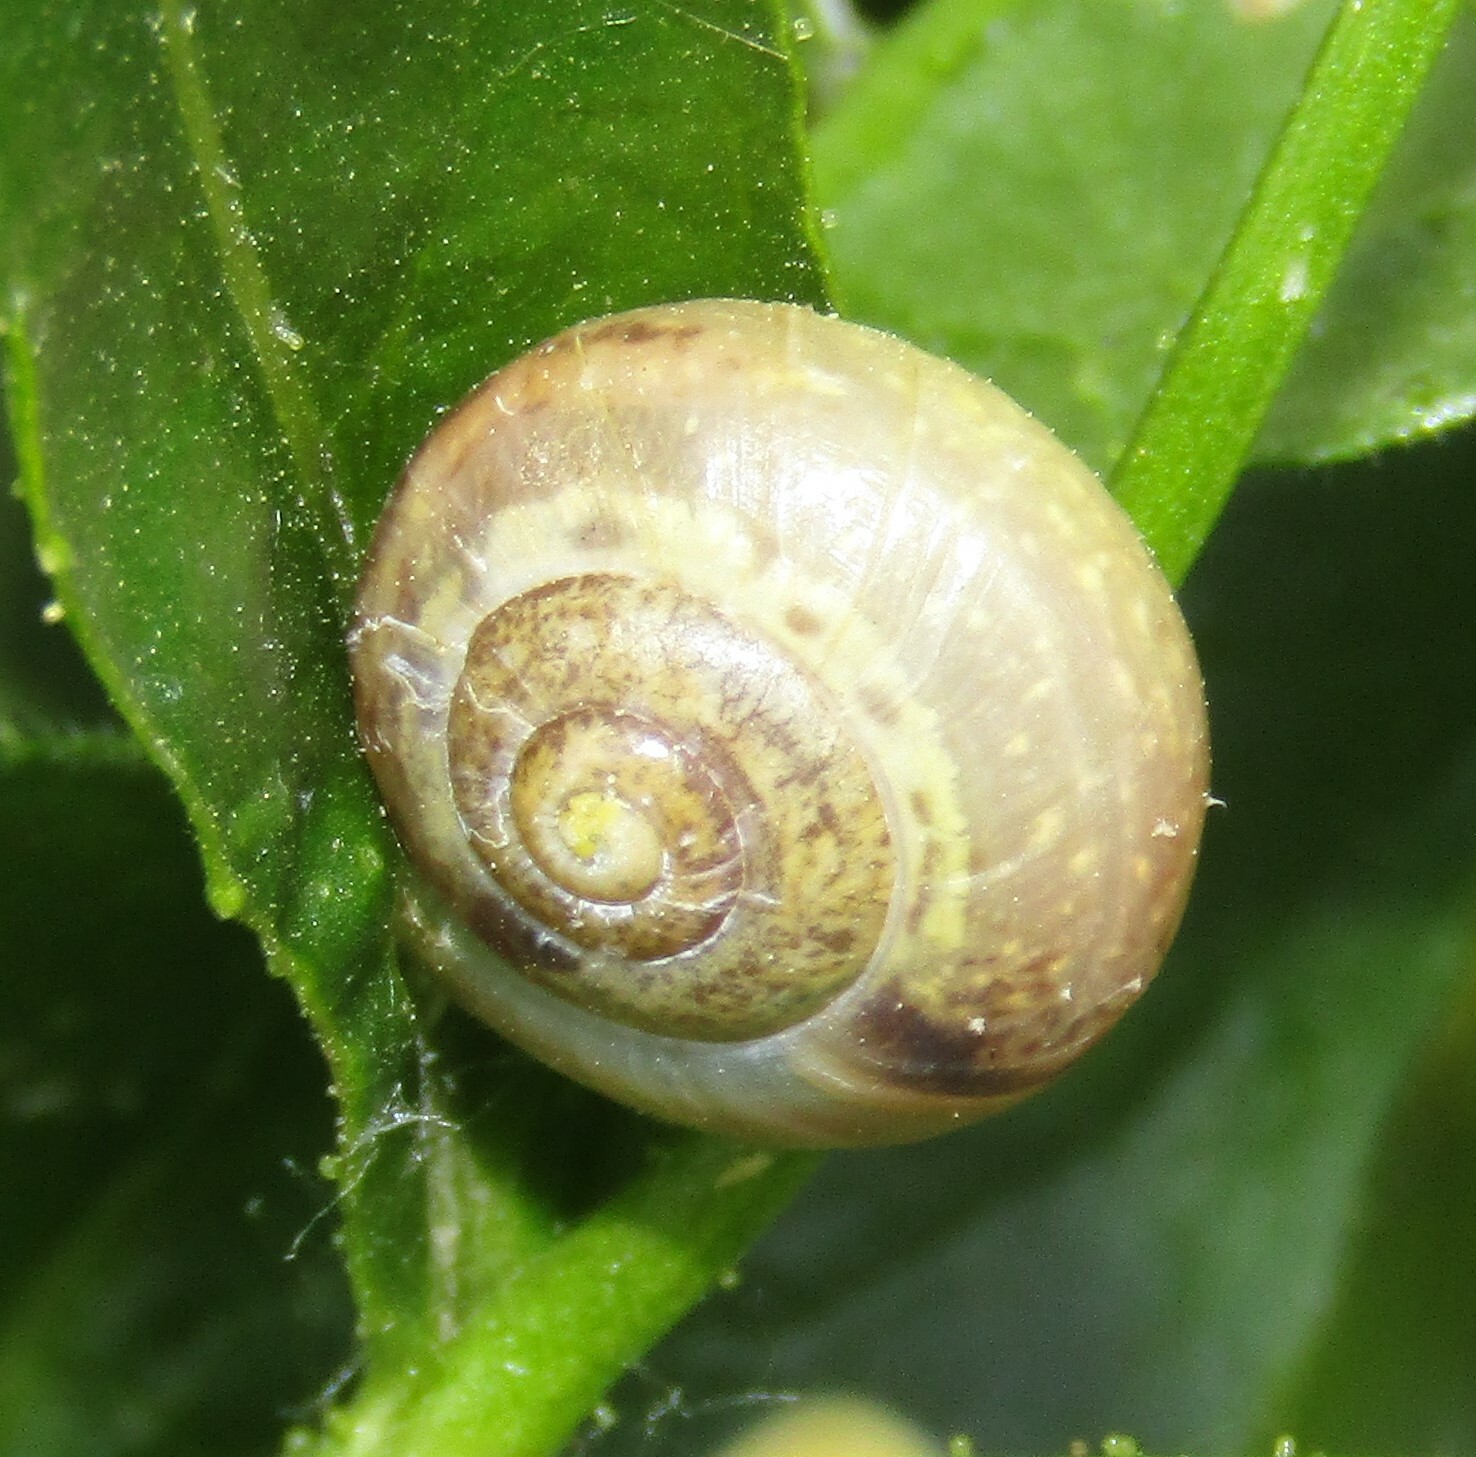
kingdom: Animalia
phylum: Mollusca
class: Gastropoda
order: Stylommatophora
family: Camaenidae
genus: Fruticicola
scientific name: Fruticicola fruticum
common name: Bush snail
